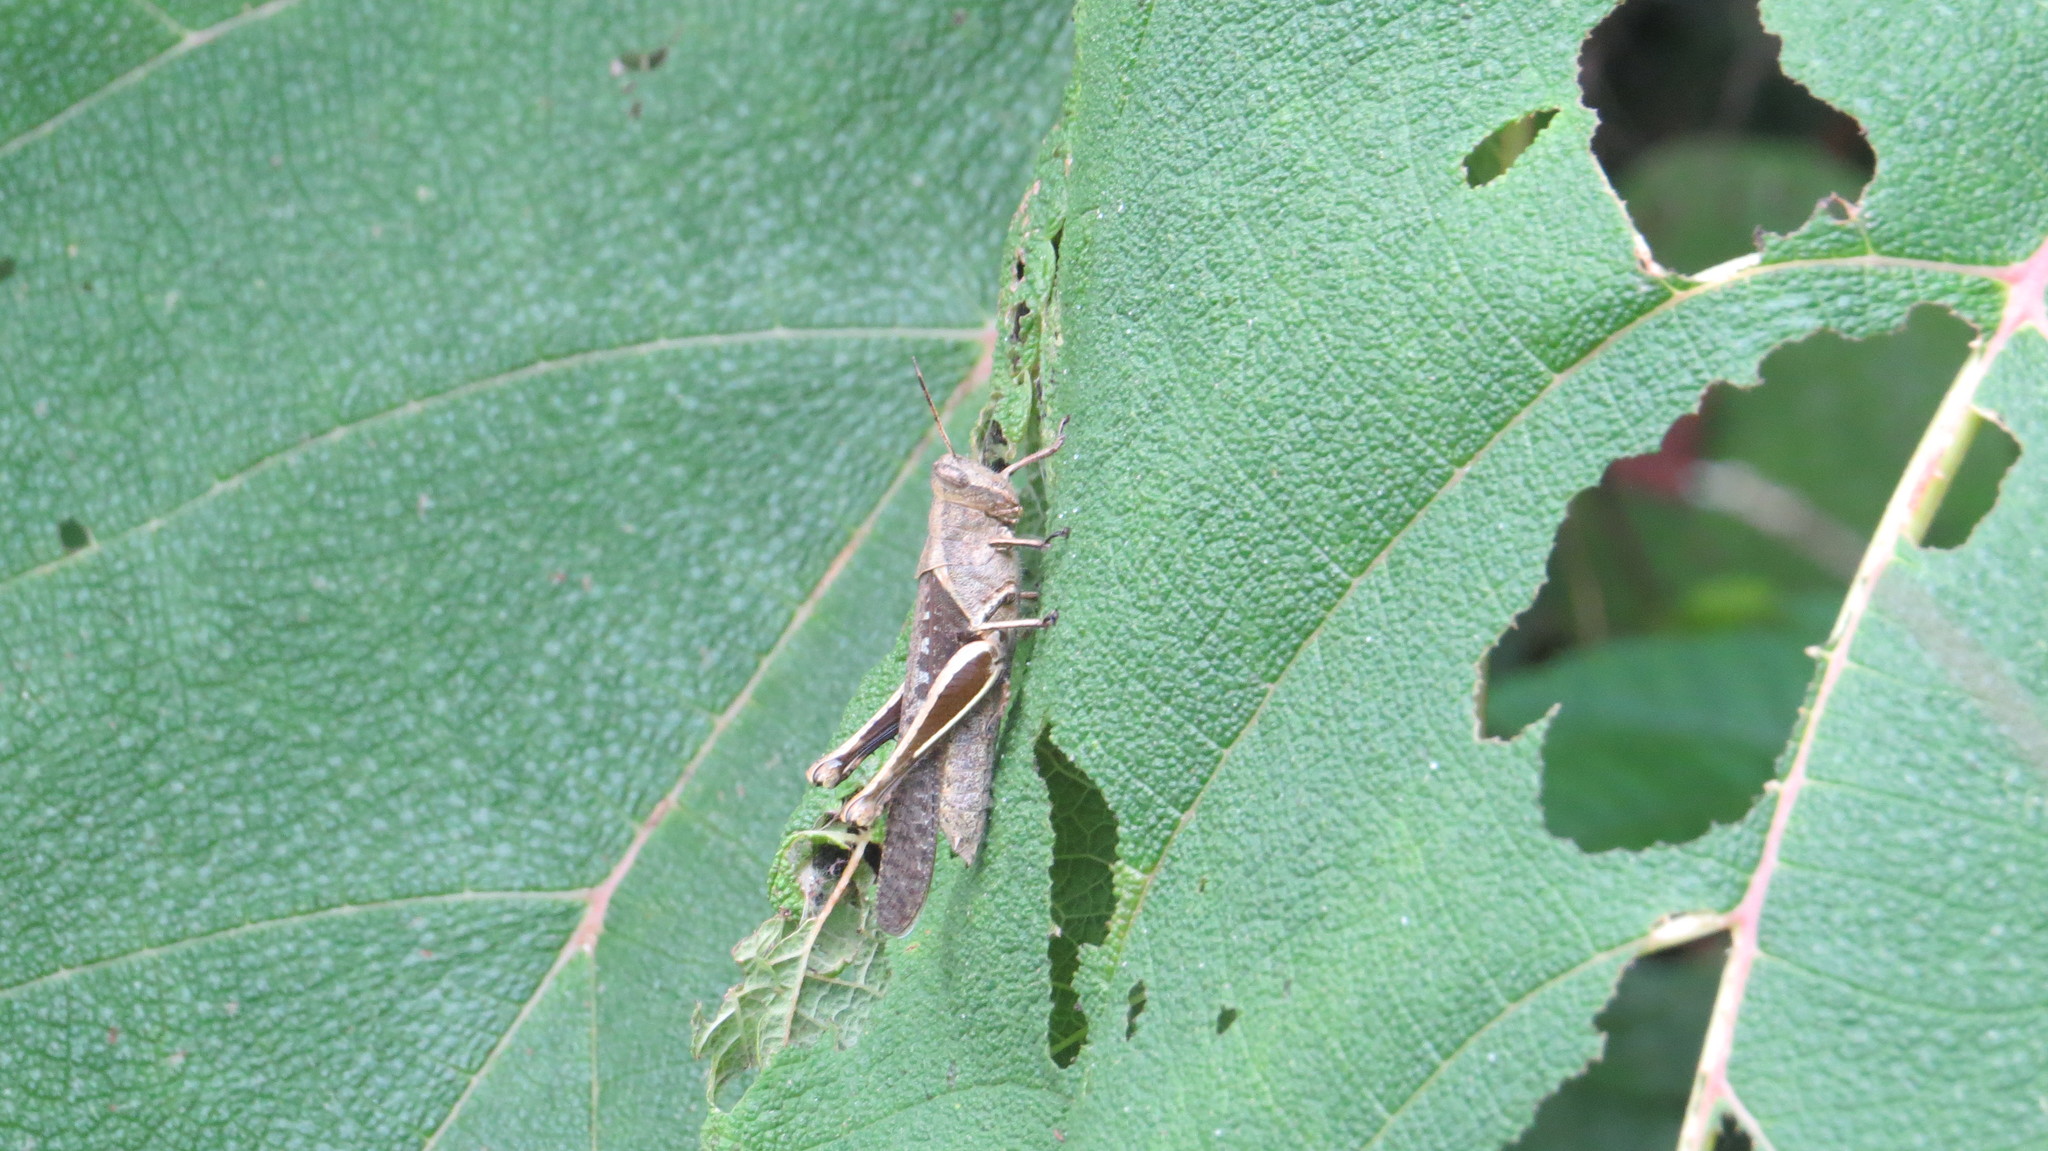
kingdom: Animalia
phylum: Arthropoda
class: Insecta
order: Orthoptera
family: Acrididae
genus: Abracris
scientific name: Abracris flavolineata
